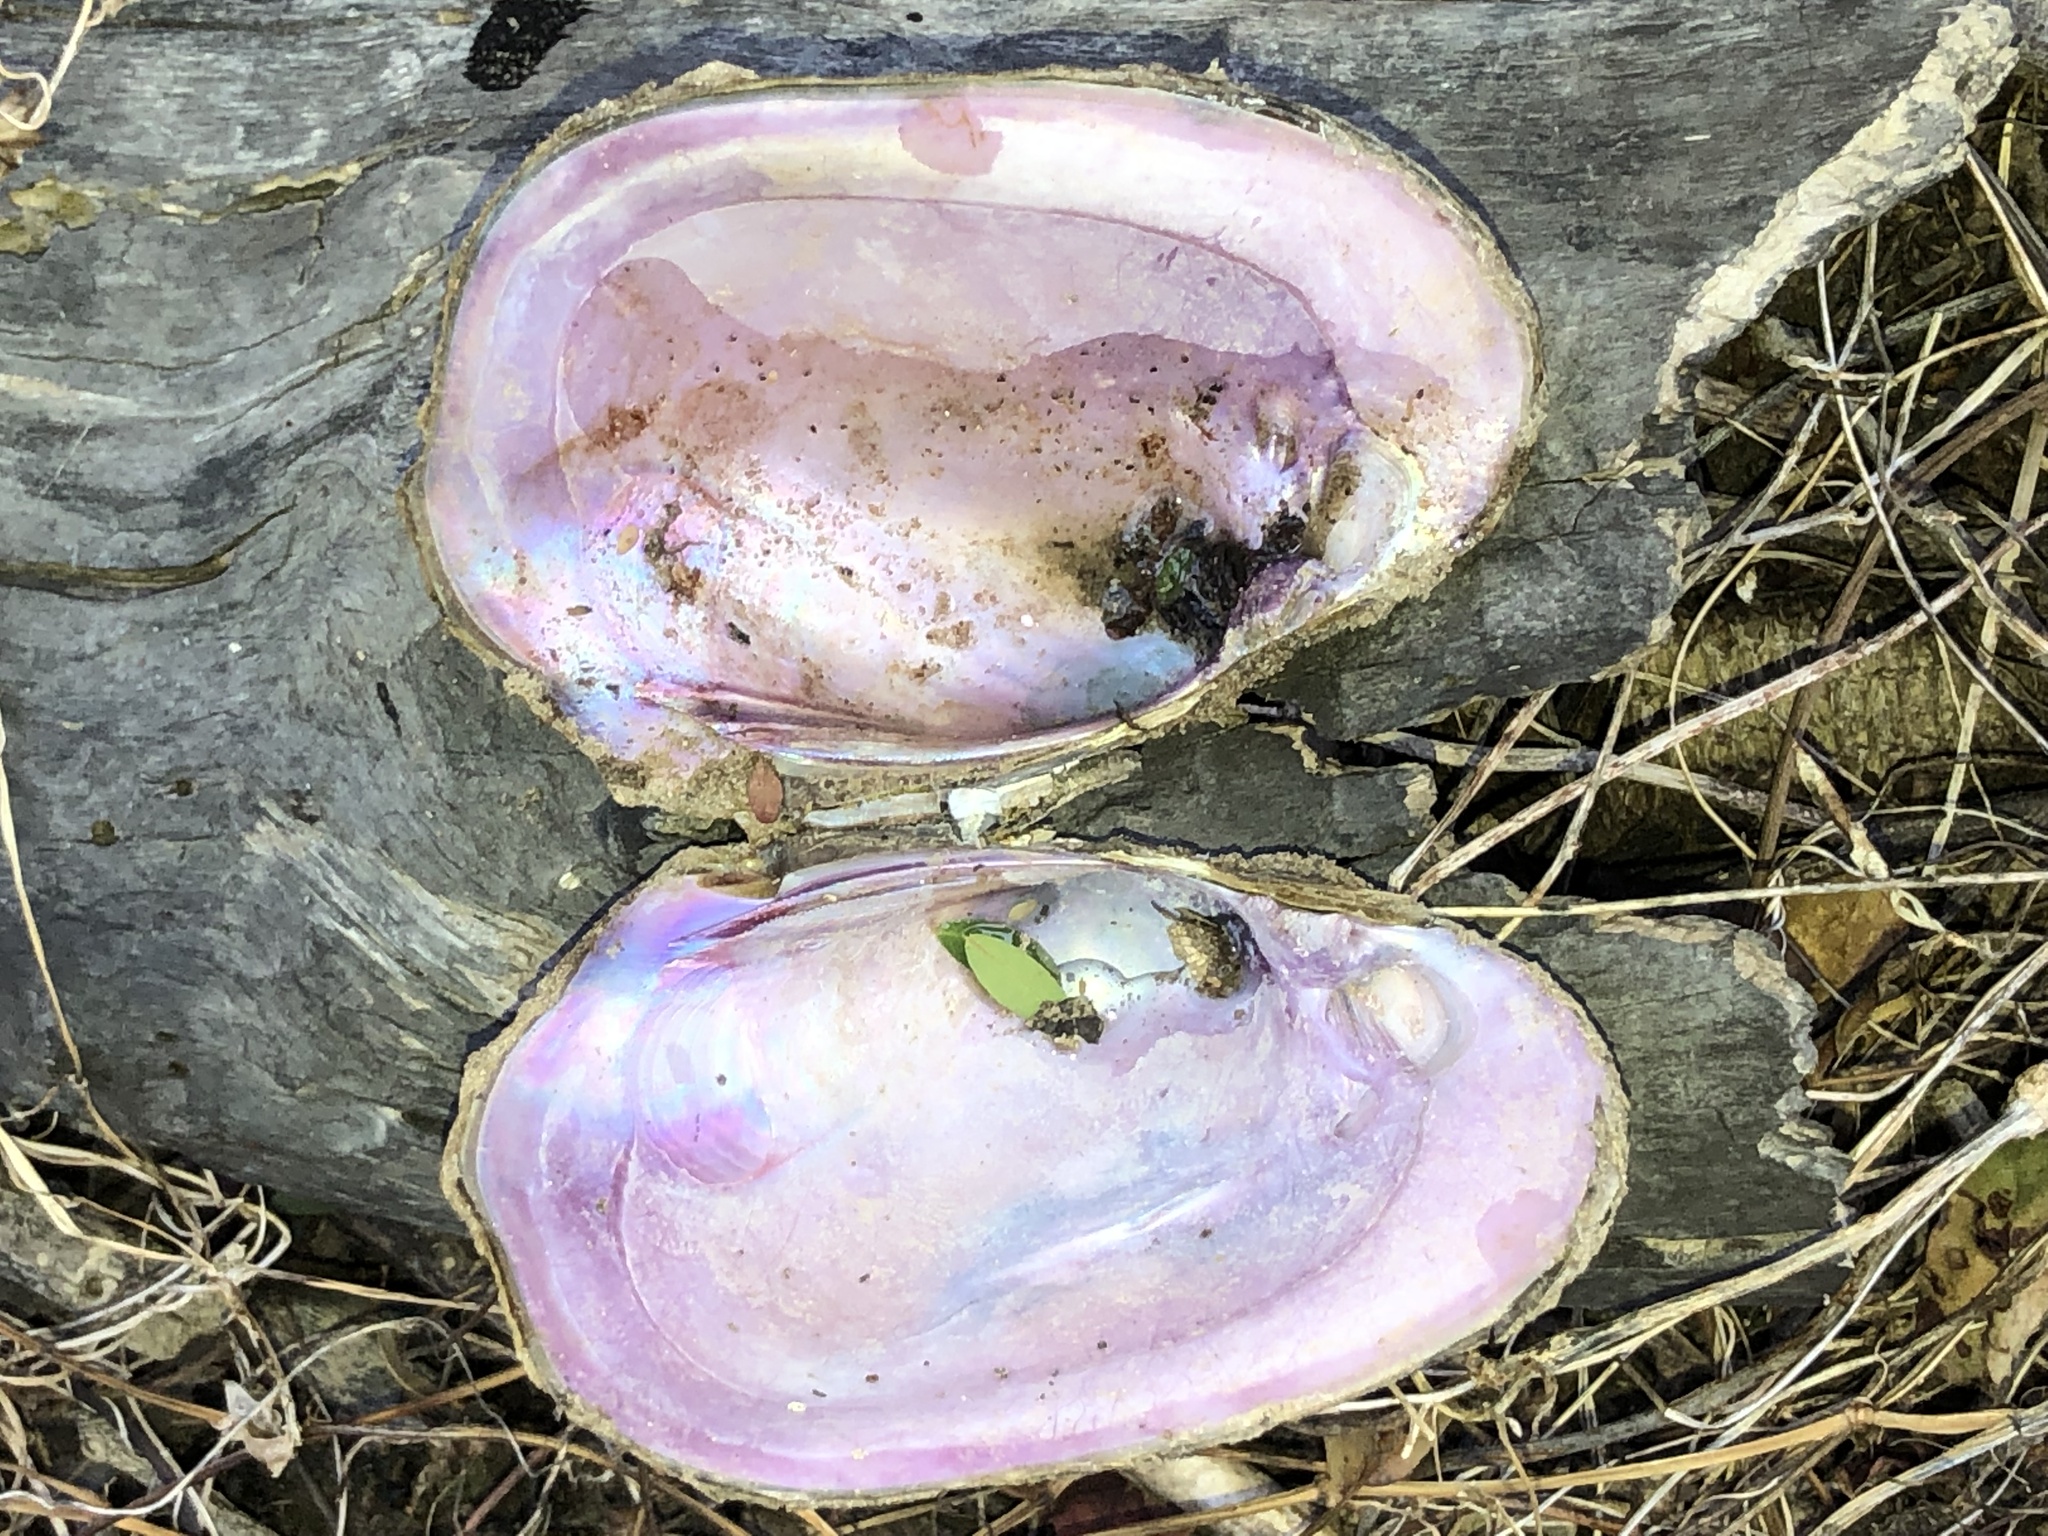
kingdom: Animalia
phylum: Mollusca
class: Bivalvia
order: Unionida
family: Unionidae
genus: Potamilus
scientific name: Potamilus purpuratus
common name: Bleufer
